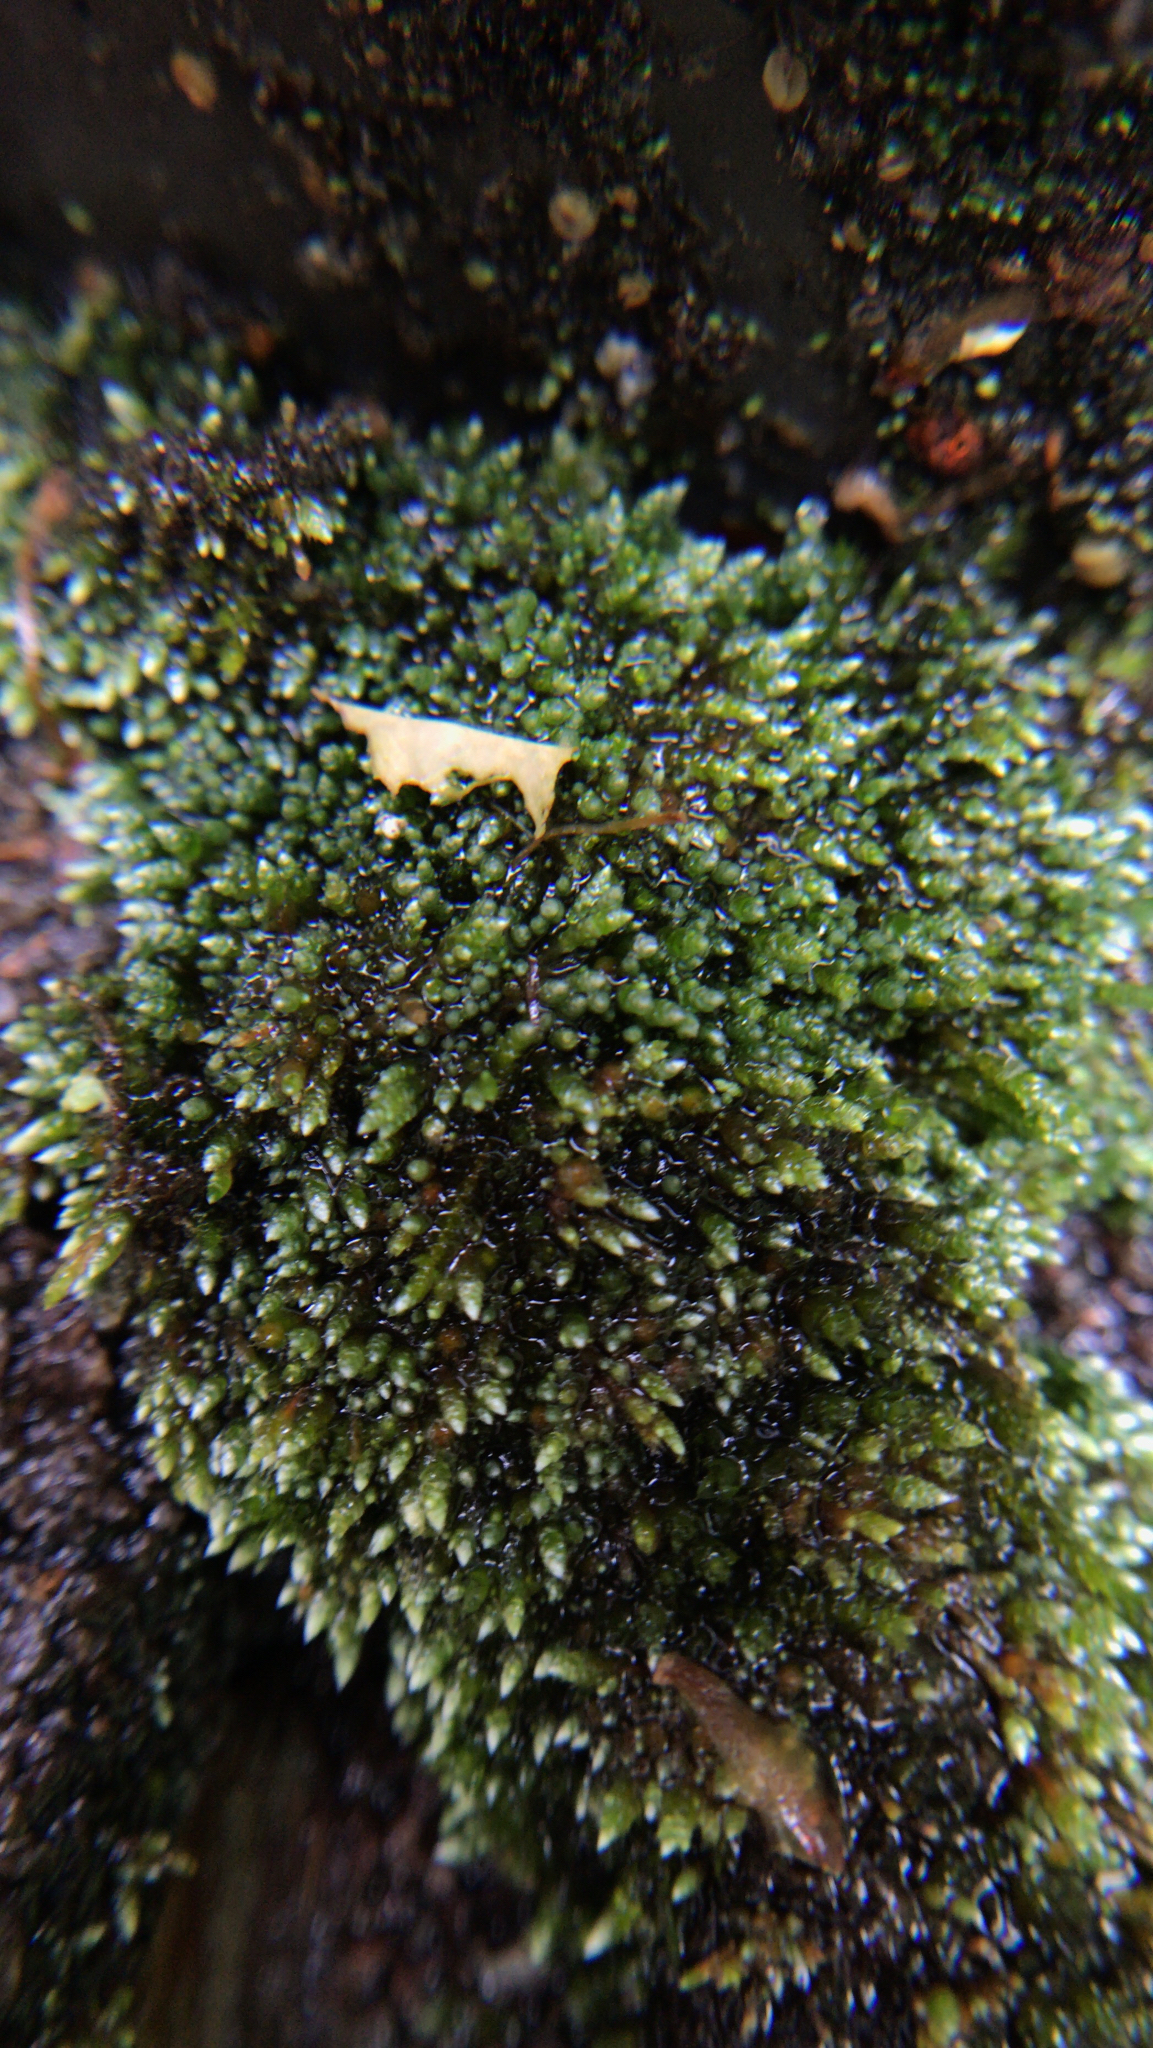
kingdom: Plantae
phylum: Bryophyta
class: Bryopsida
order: Bryales
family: Bryaceae
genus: Bryum
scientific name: Bryum argenteum
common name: Silver-moss
